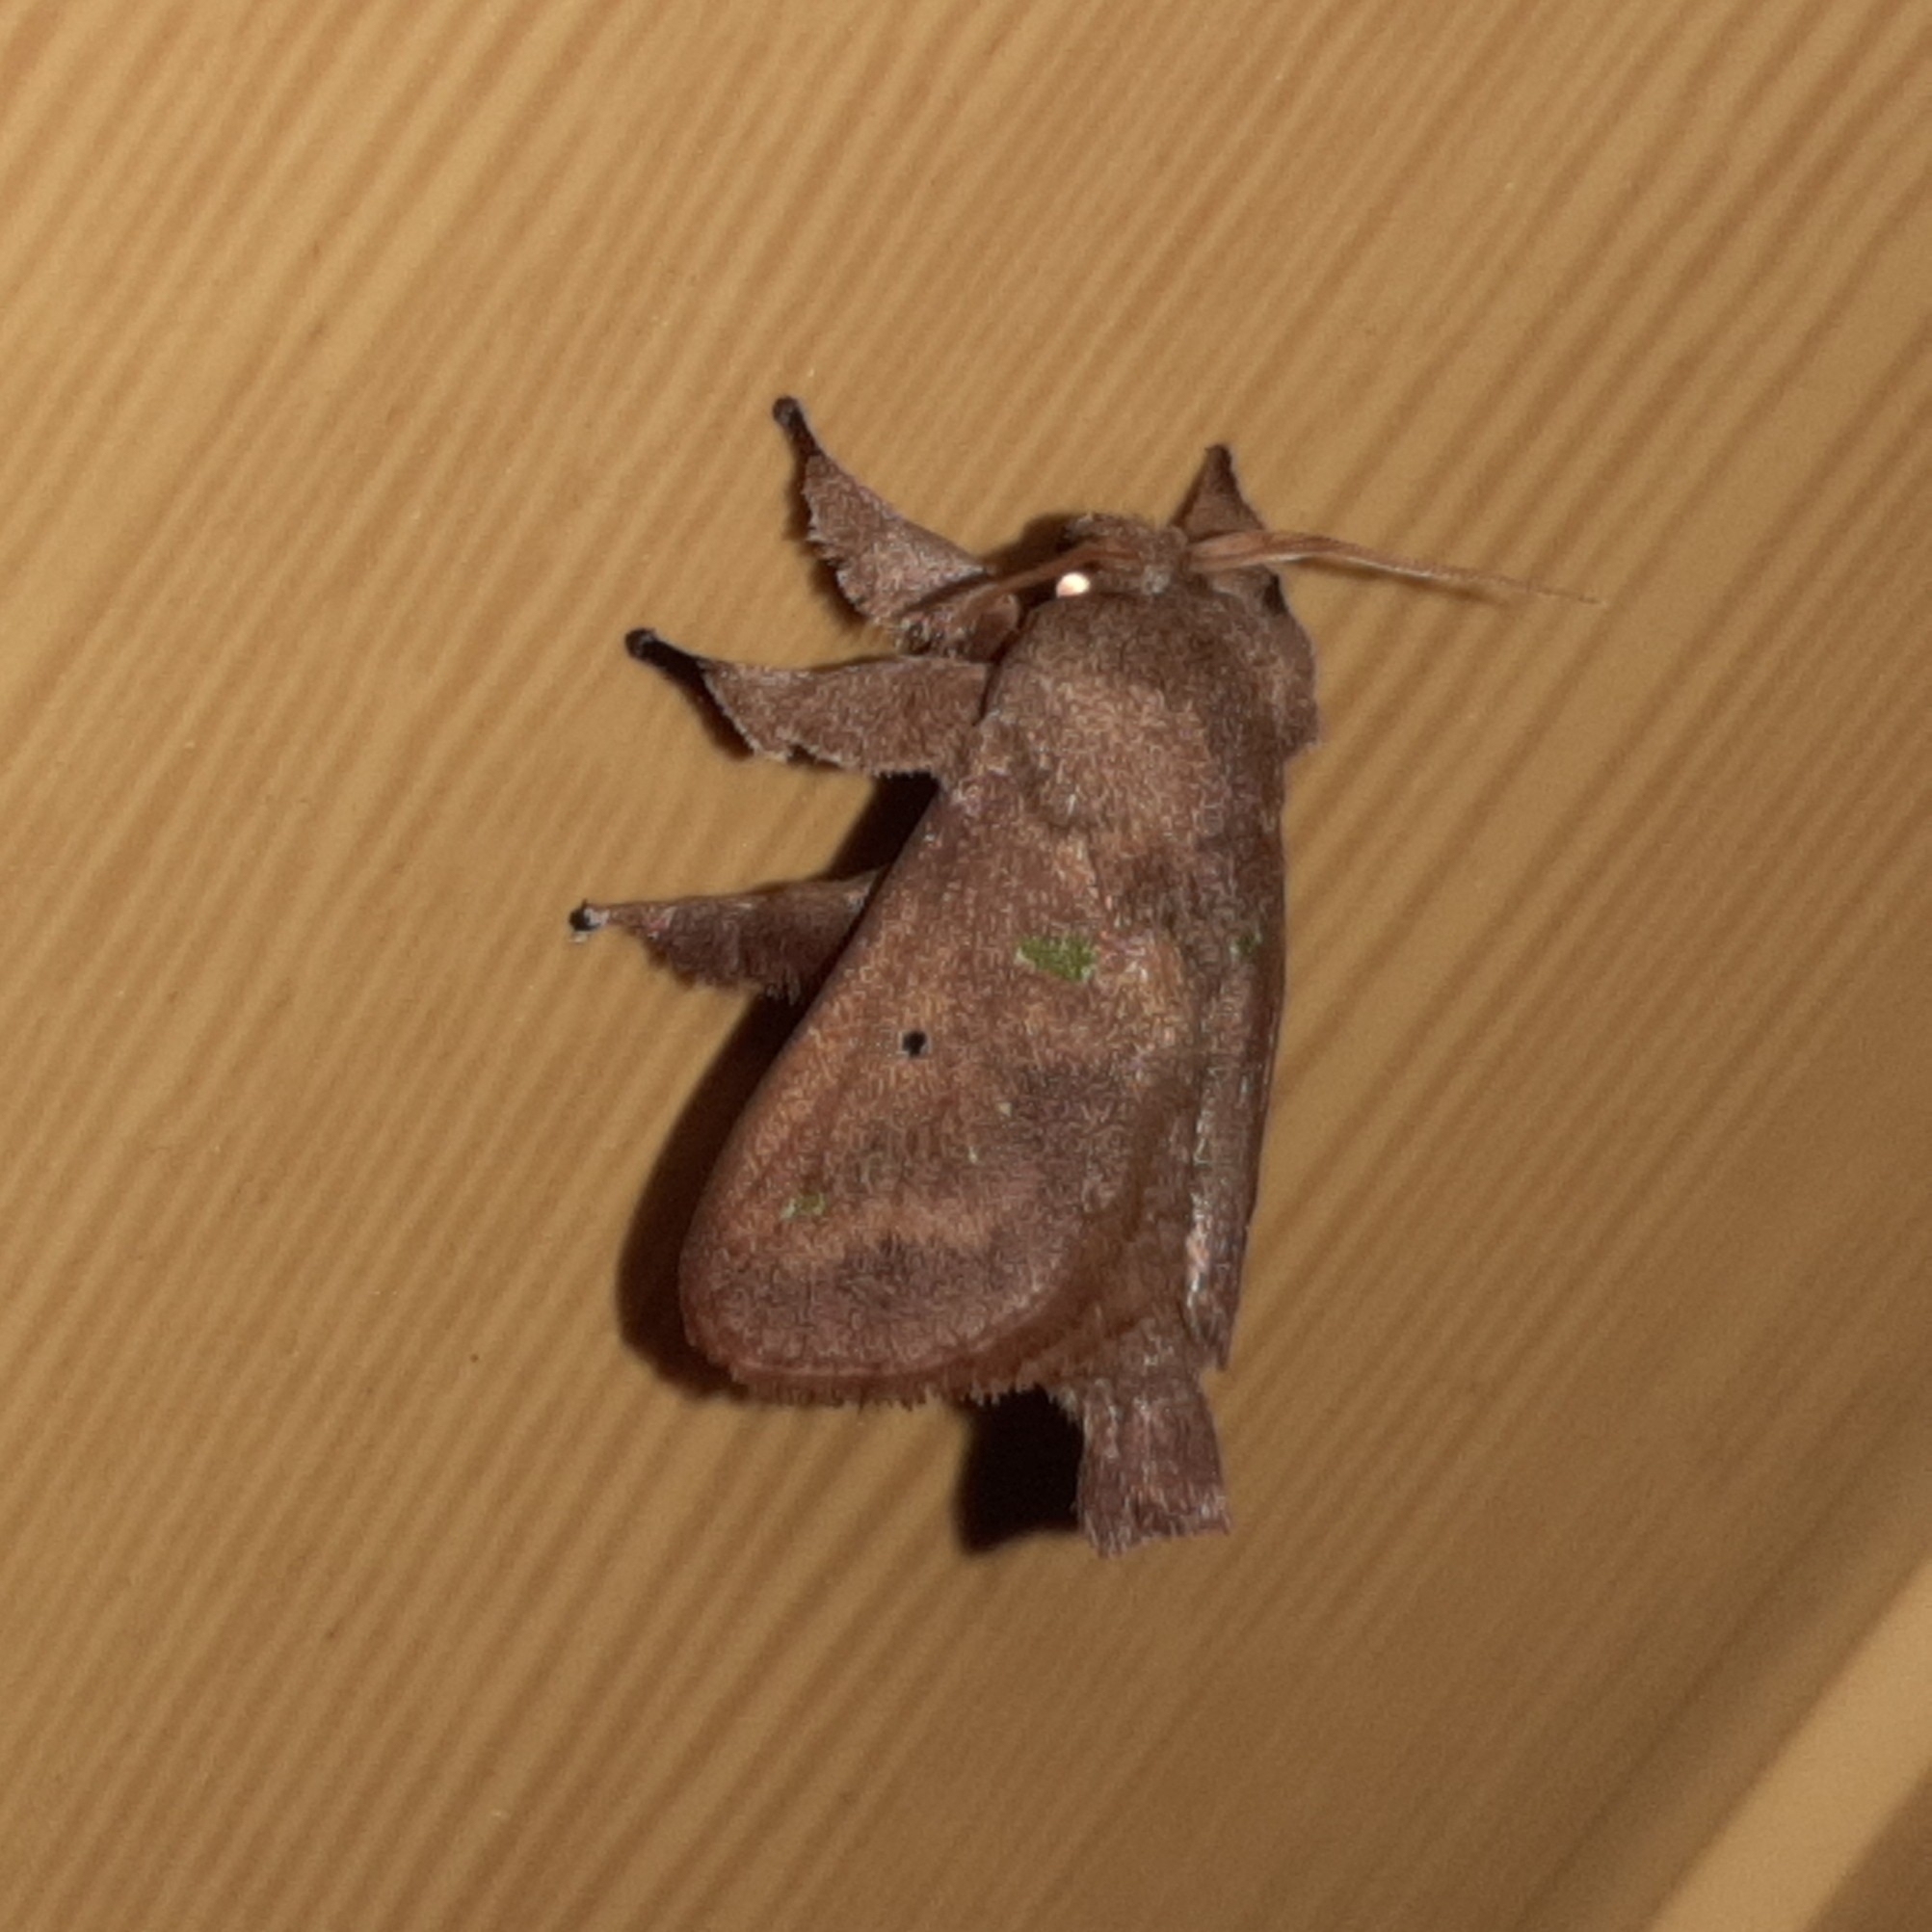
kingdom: Animalia
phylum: Arthropoda
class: Insecta
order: Lepidoptera
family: Limacodidae
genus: Euclea
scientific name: Euclea norba
